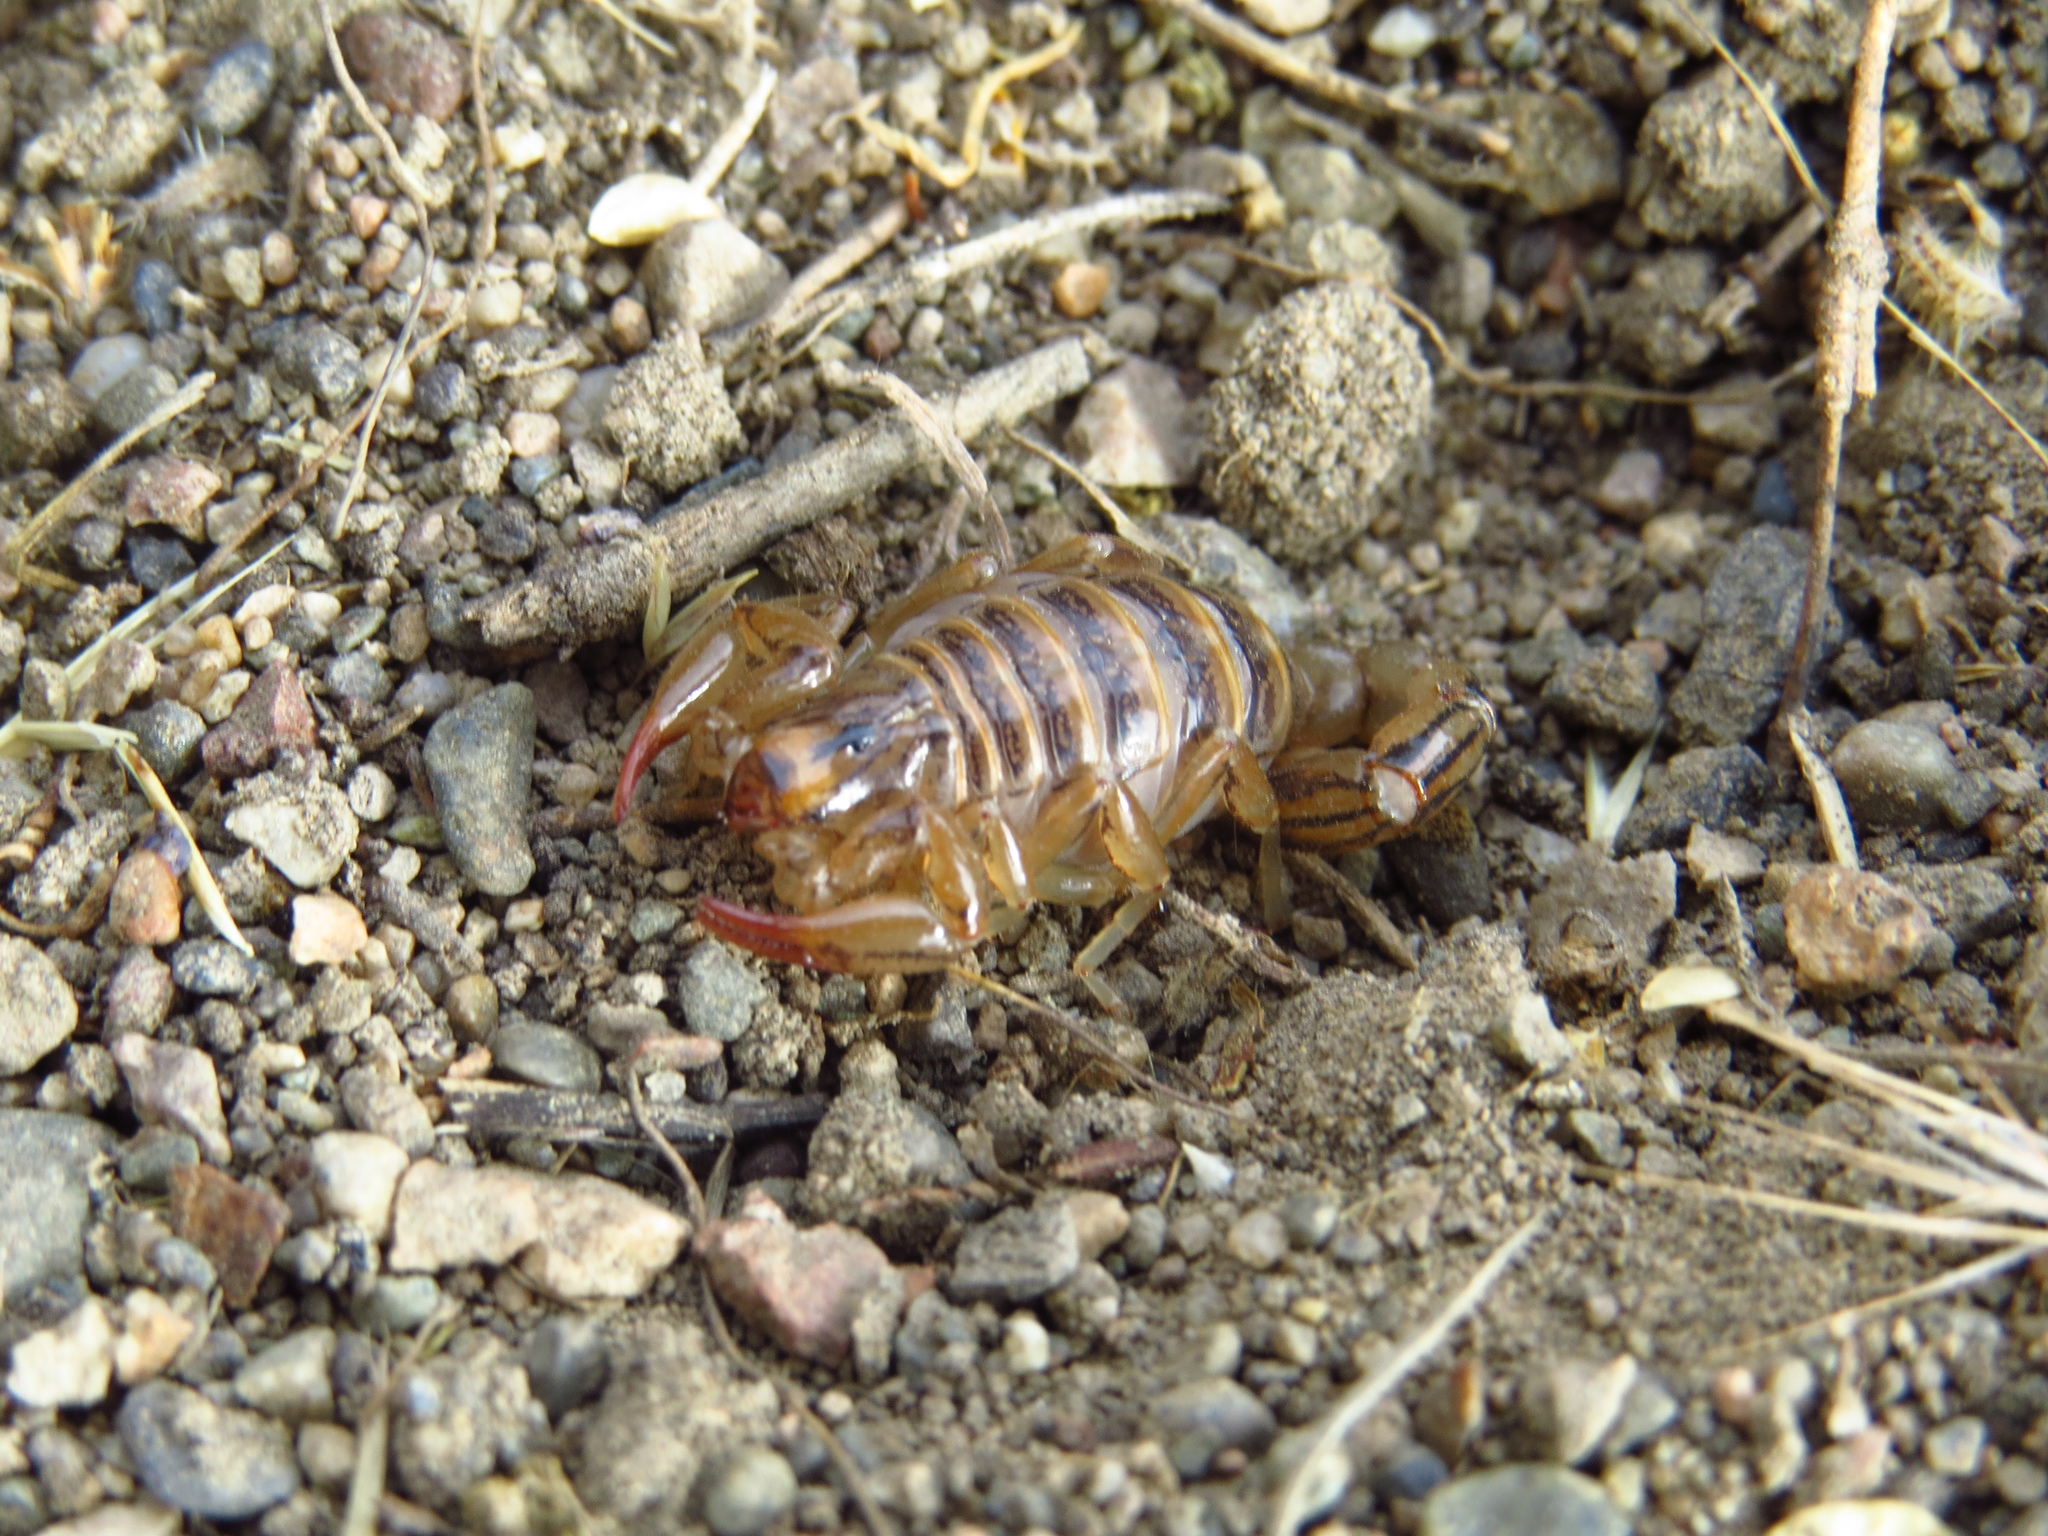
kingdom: Animalia
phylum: Arthropoda
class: Arachnida
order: Scorpiones
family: Bothriuridae
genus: Bothriurus
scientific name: Bothriurus patagonicus
